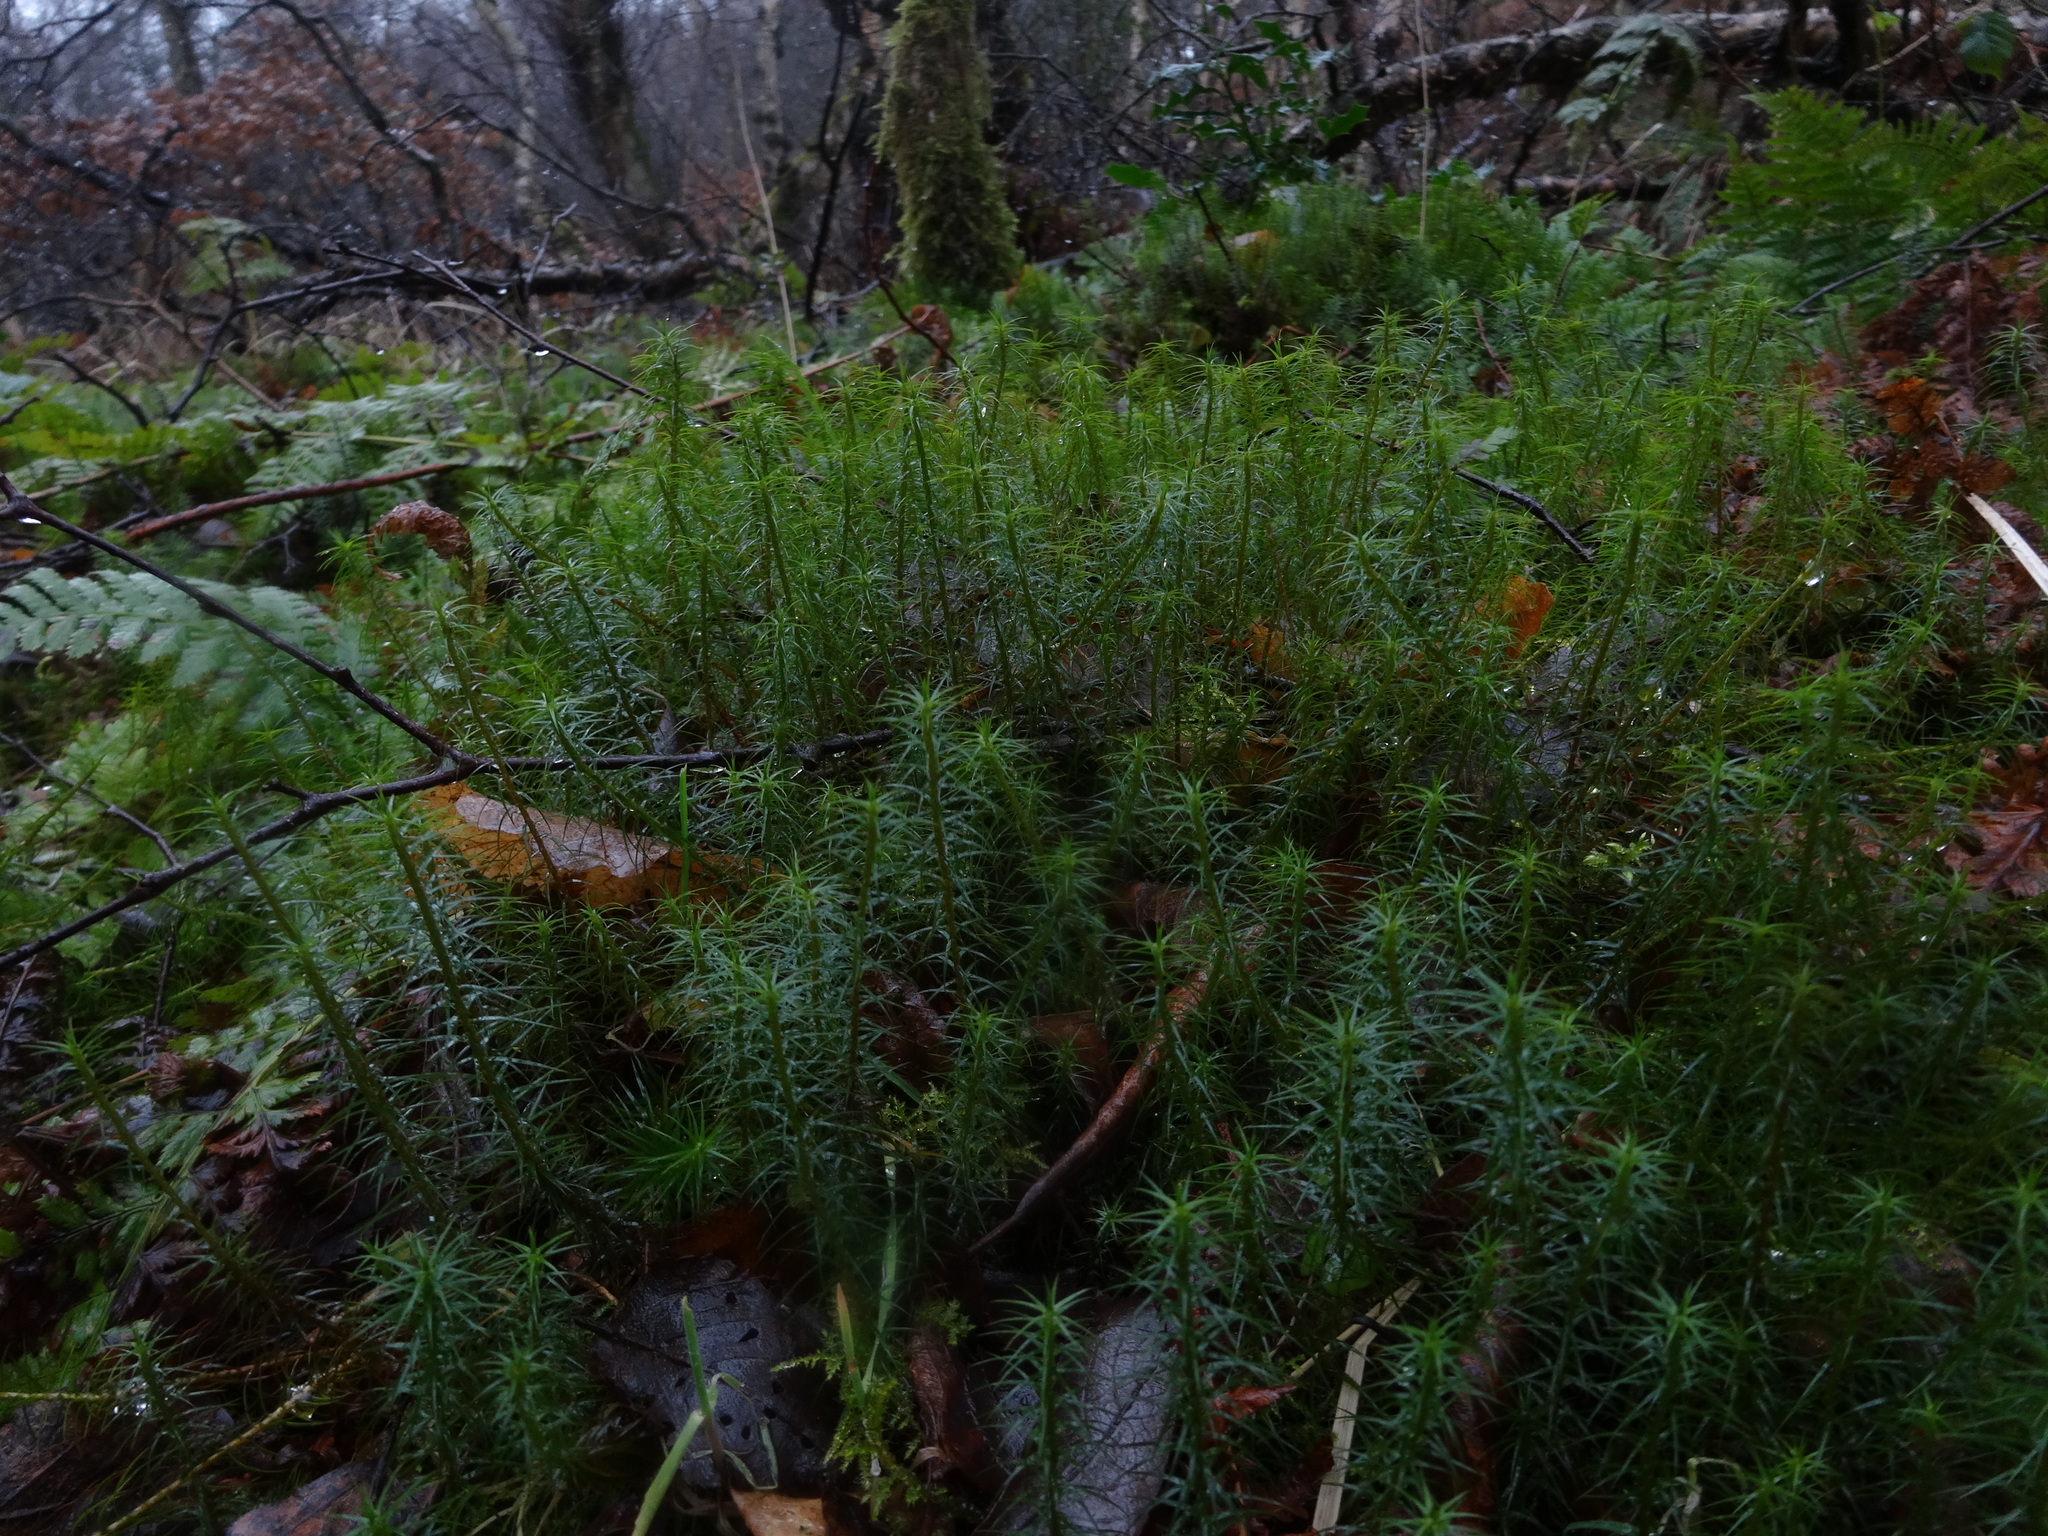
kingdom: Plantae
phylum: Bryophyta
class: Polytrichopsida
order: Polytrichales
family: Polytrichaceae
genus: Polytrichum
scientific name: Polytrichum commune
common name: Common haircap
